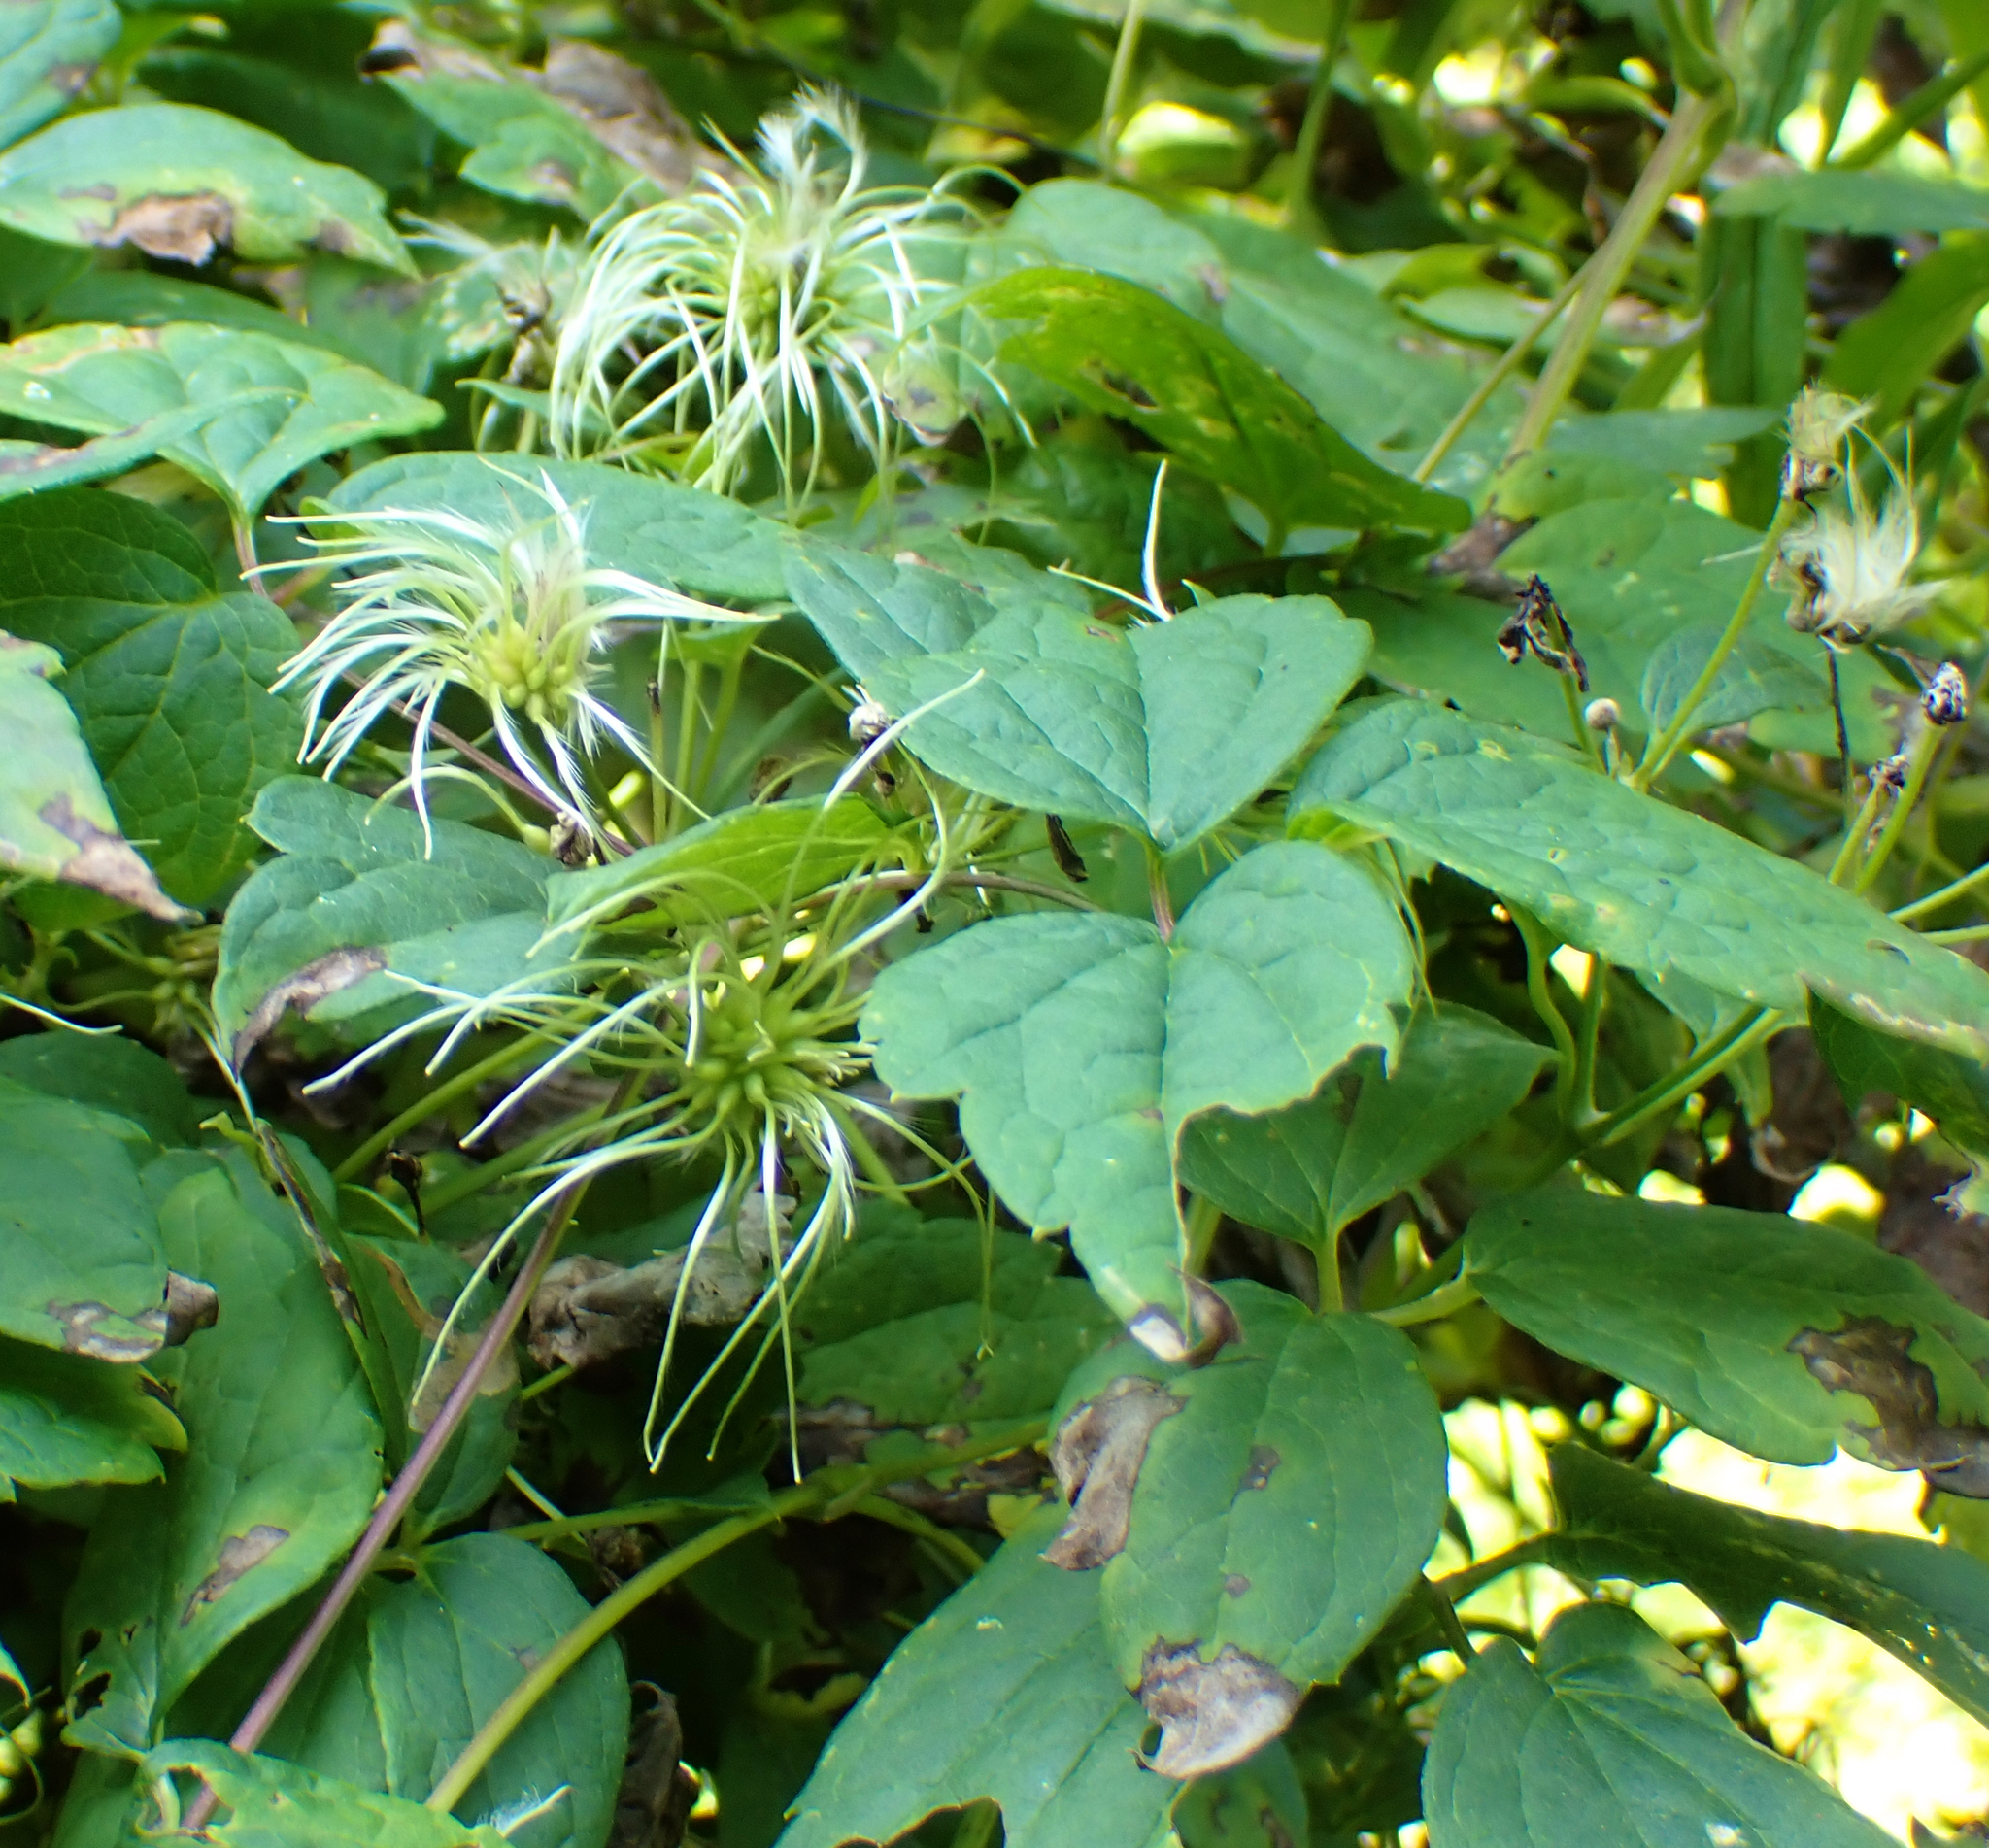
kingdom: Plantae
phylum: Tracheophyta
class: Magnoliopsida
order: Ranunculales
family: Ranunculaceae
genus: Clematis
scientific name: Clematis virginiana
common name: Virgin's-bower
